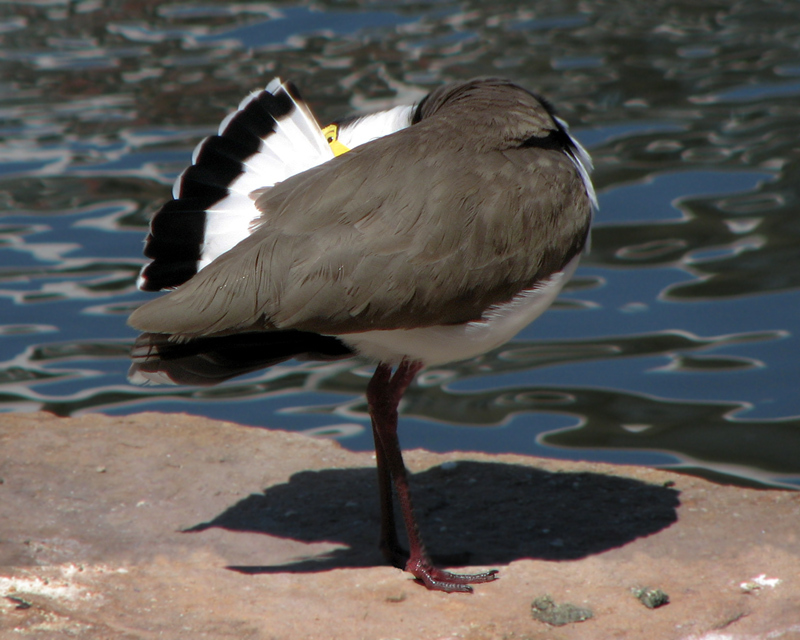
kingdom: Animalia
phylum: Chordata
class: Aves
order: Charadriiformes
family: Charadriidae
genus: Vanellus
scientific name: Vanellus miles
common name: Masked lapwing
